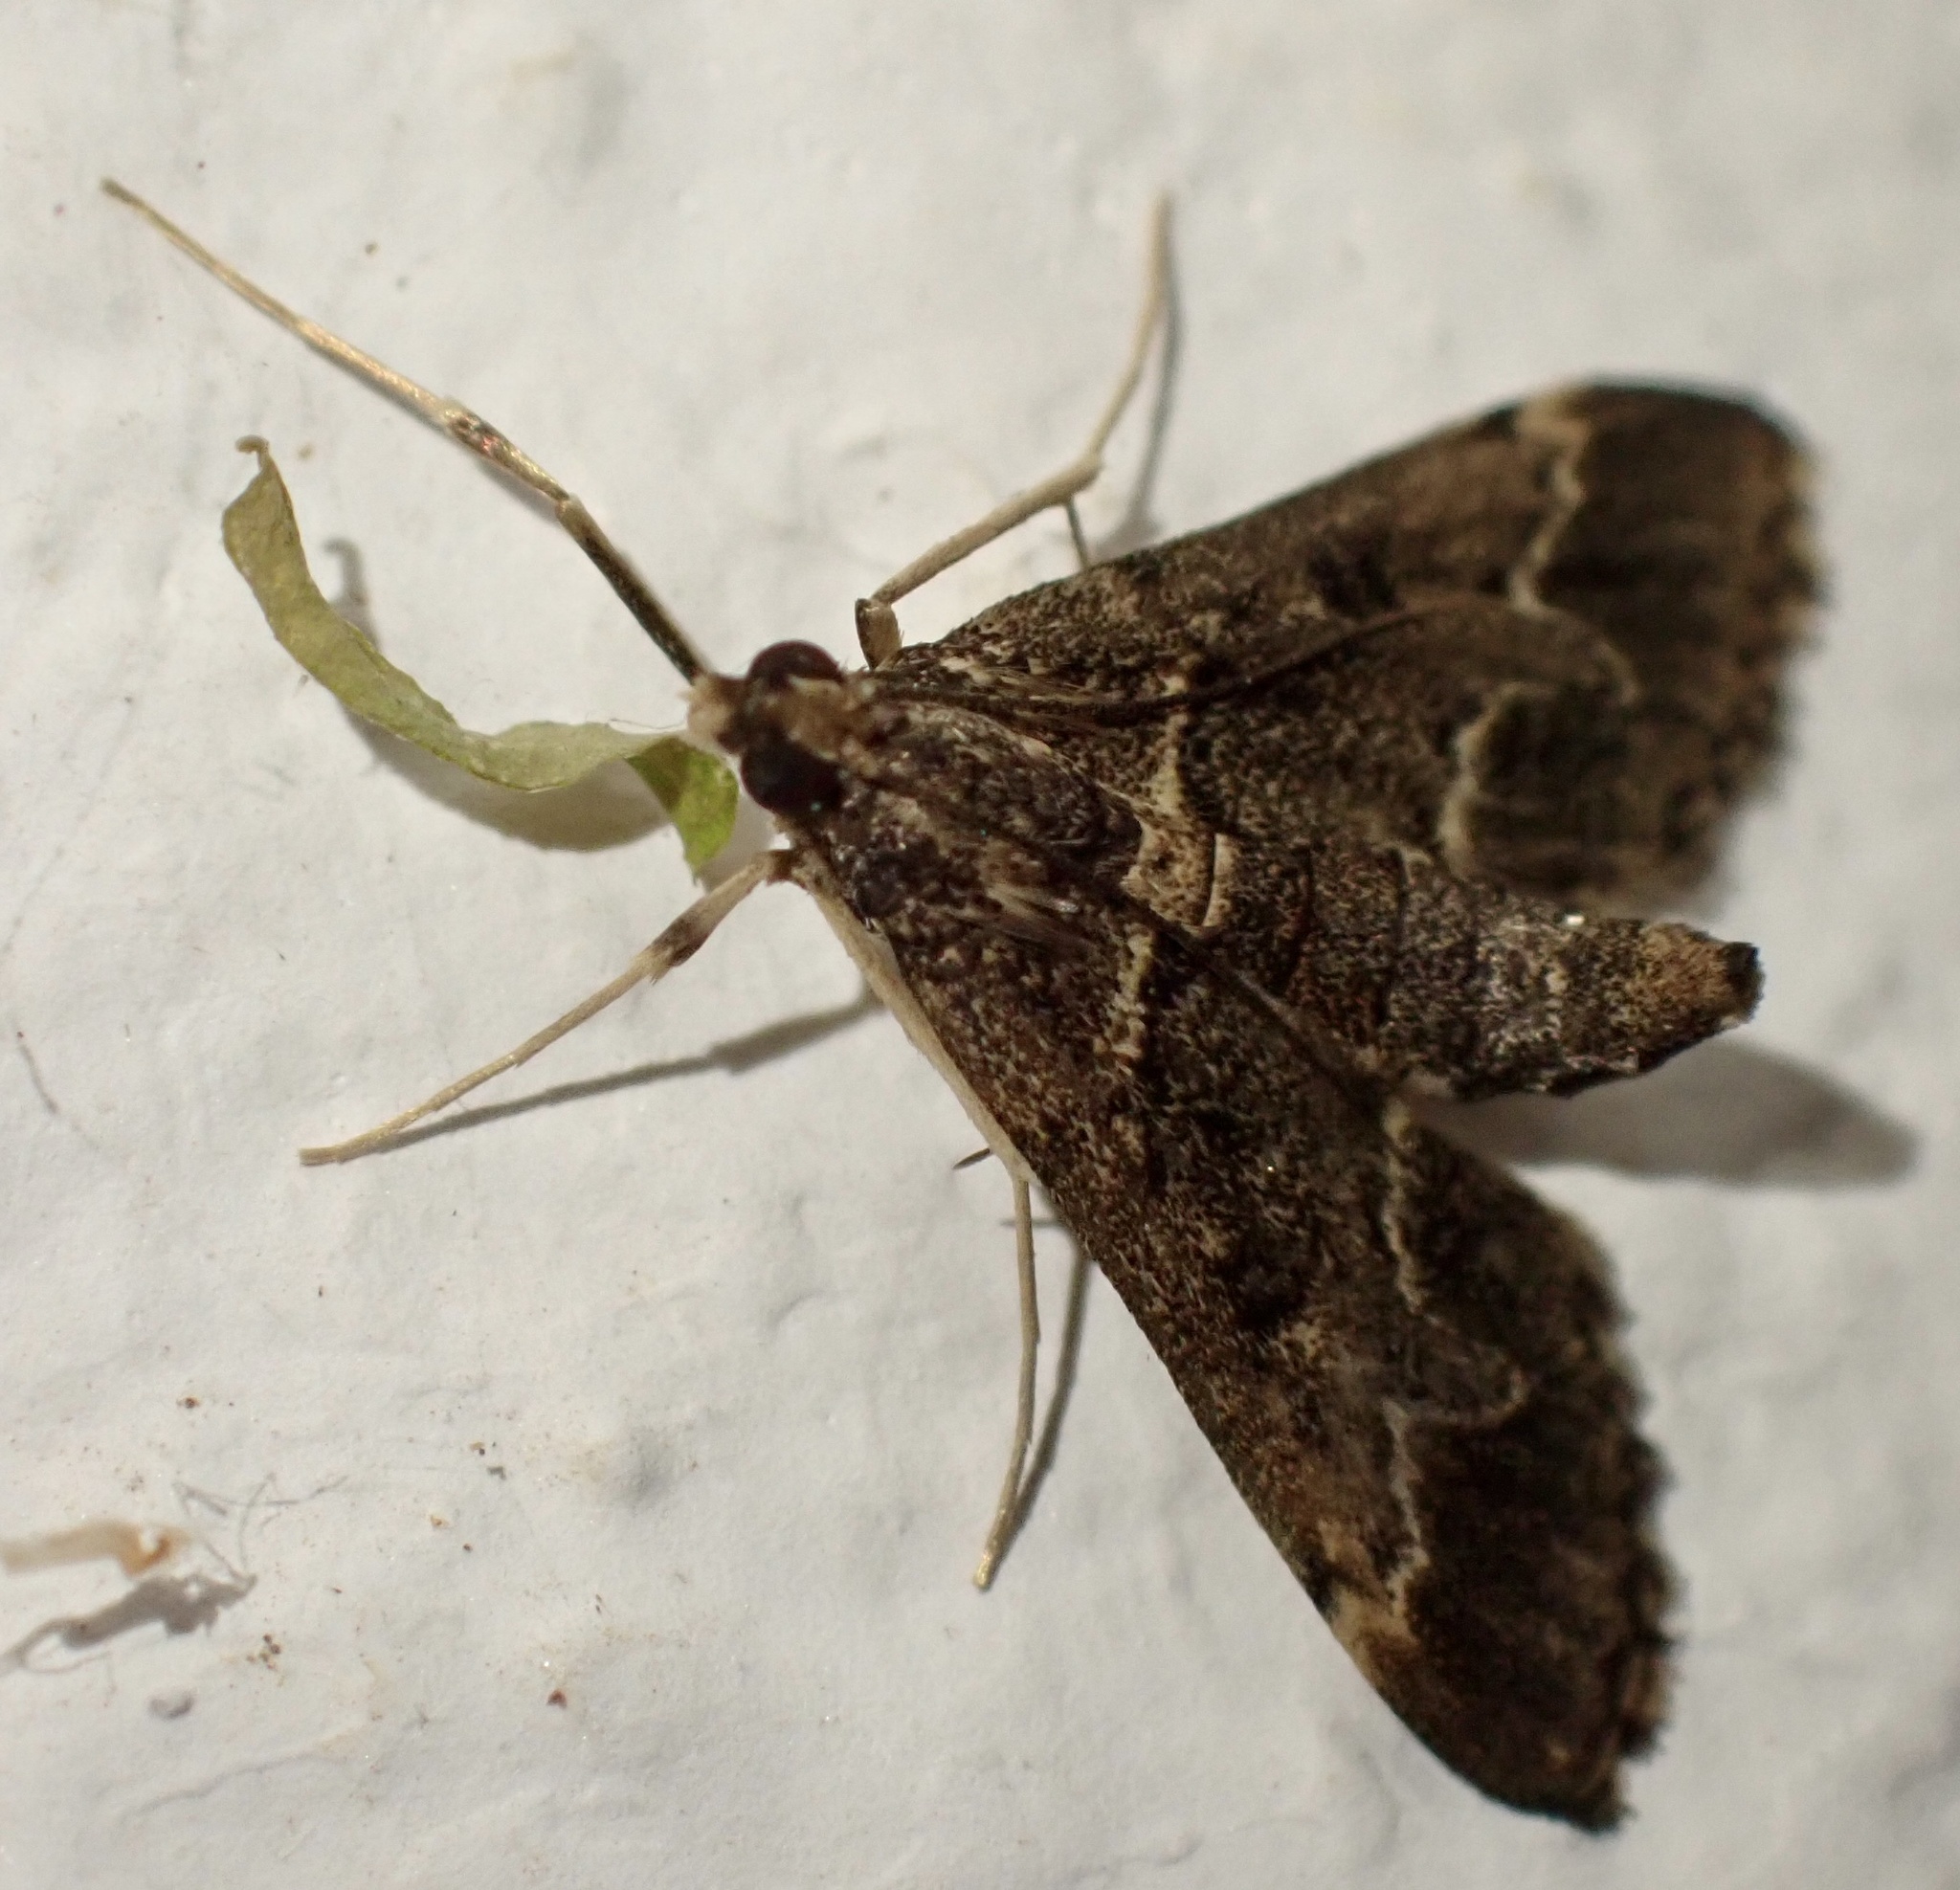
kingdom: Animalia
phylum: Arthropoda
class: Insecta
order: Lepidoptera
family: Crambidae
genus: Duponchelia
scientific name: Duponchelia fovealis
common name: Crambid moth
